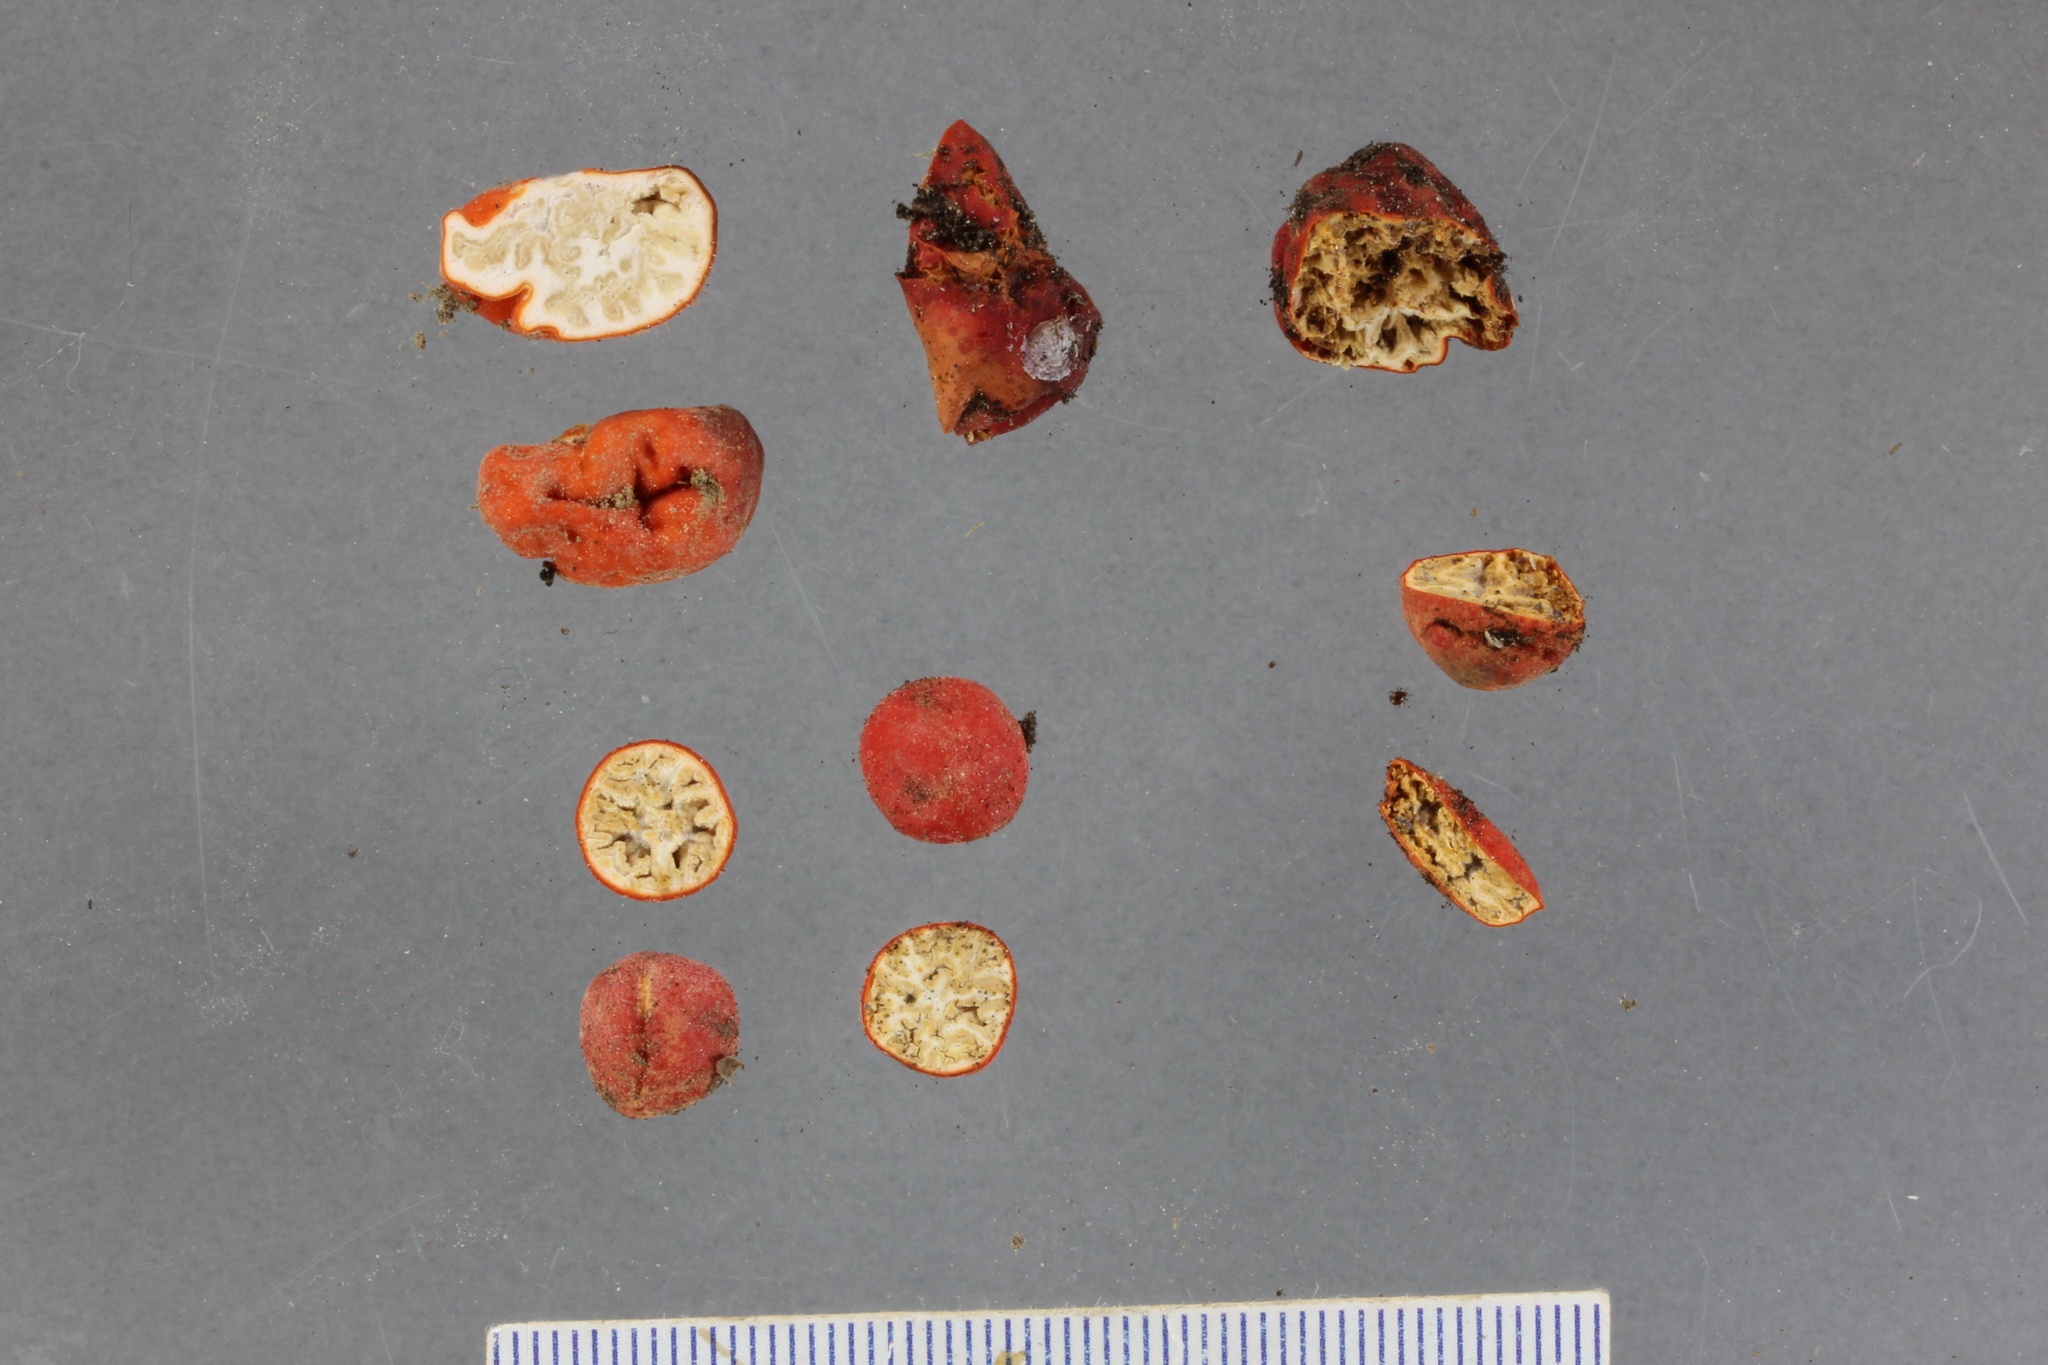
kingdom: Fungi
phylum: Ascomycota
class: Pezizomycetes
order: Pezizales
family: Pyronemataceae
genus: Paurocotylis
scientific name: Paurocotylis pila
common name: Scarlet berry truffle
